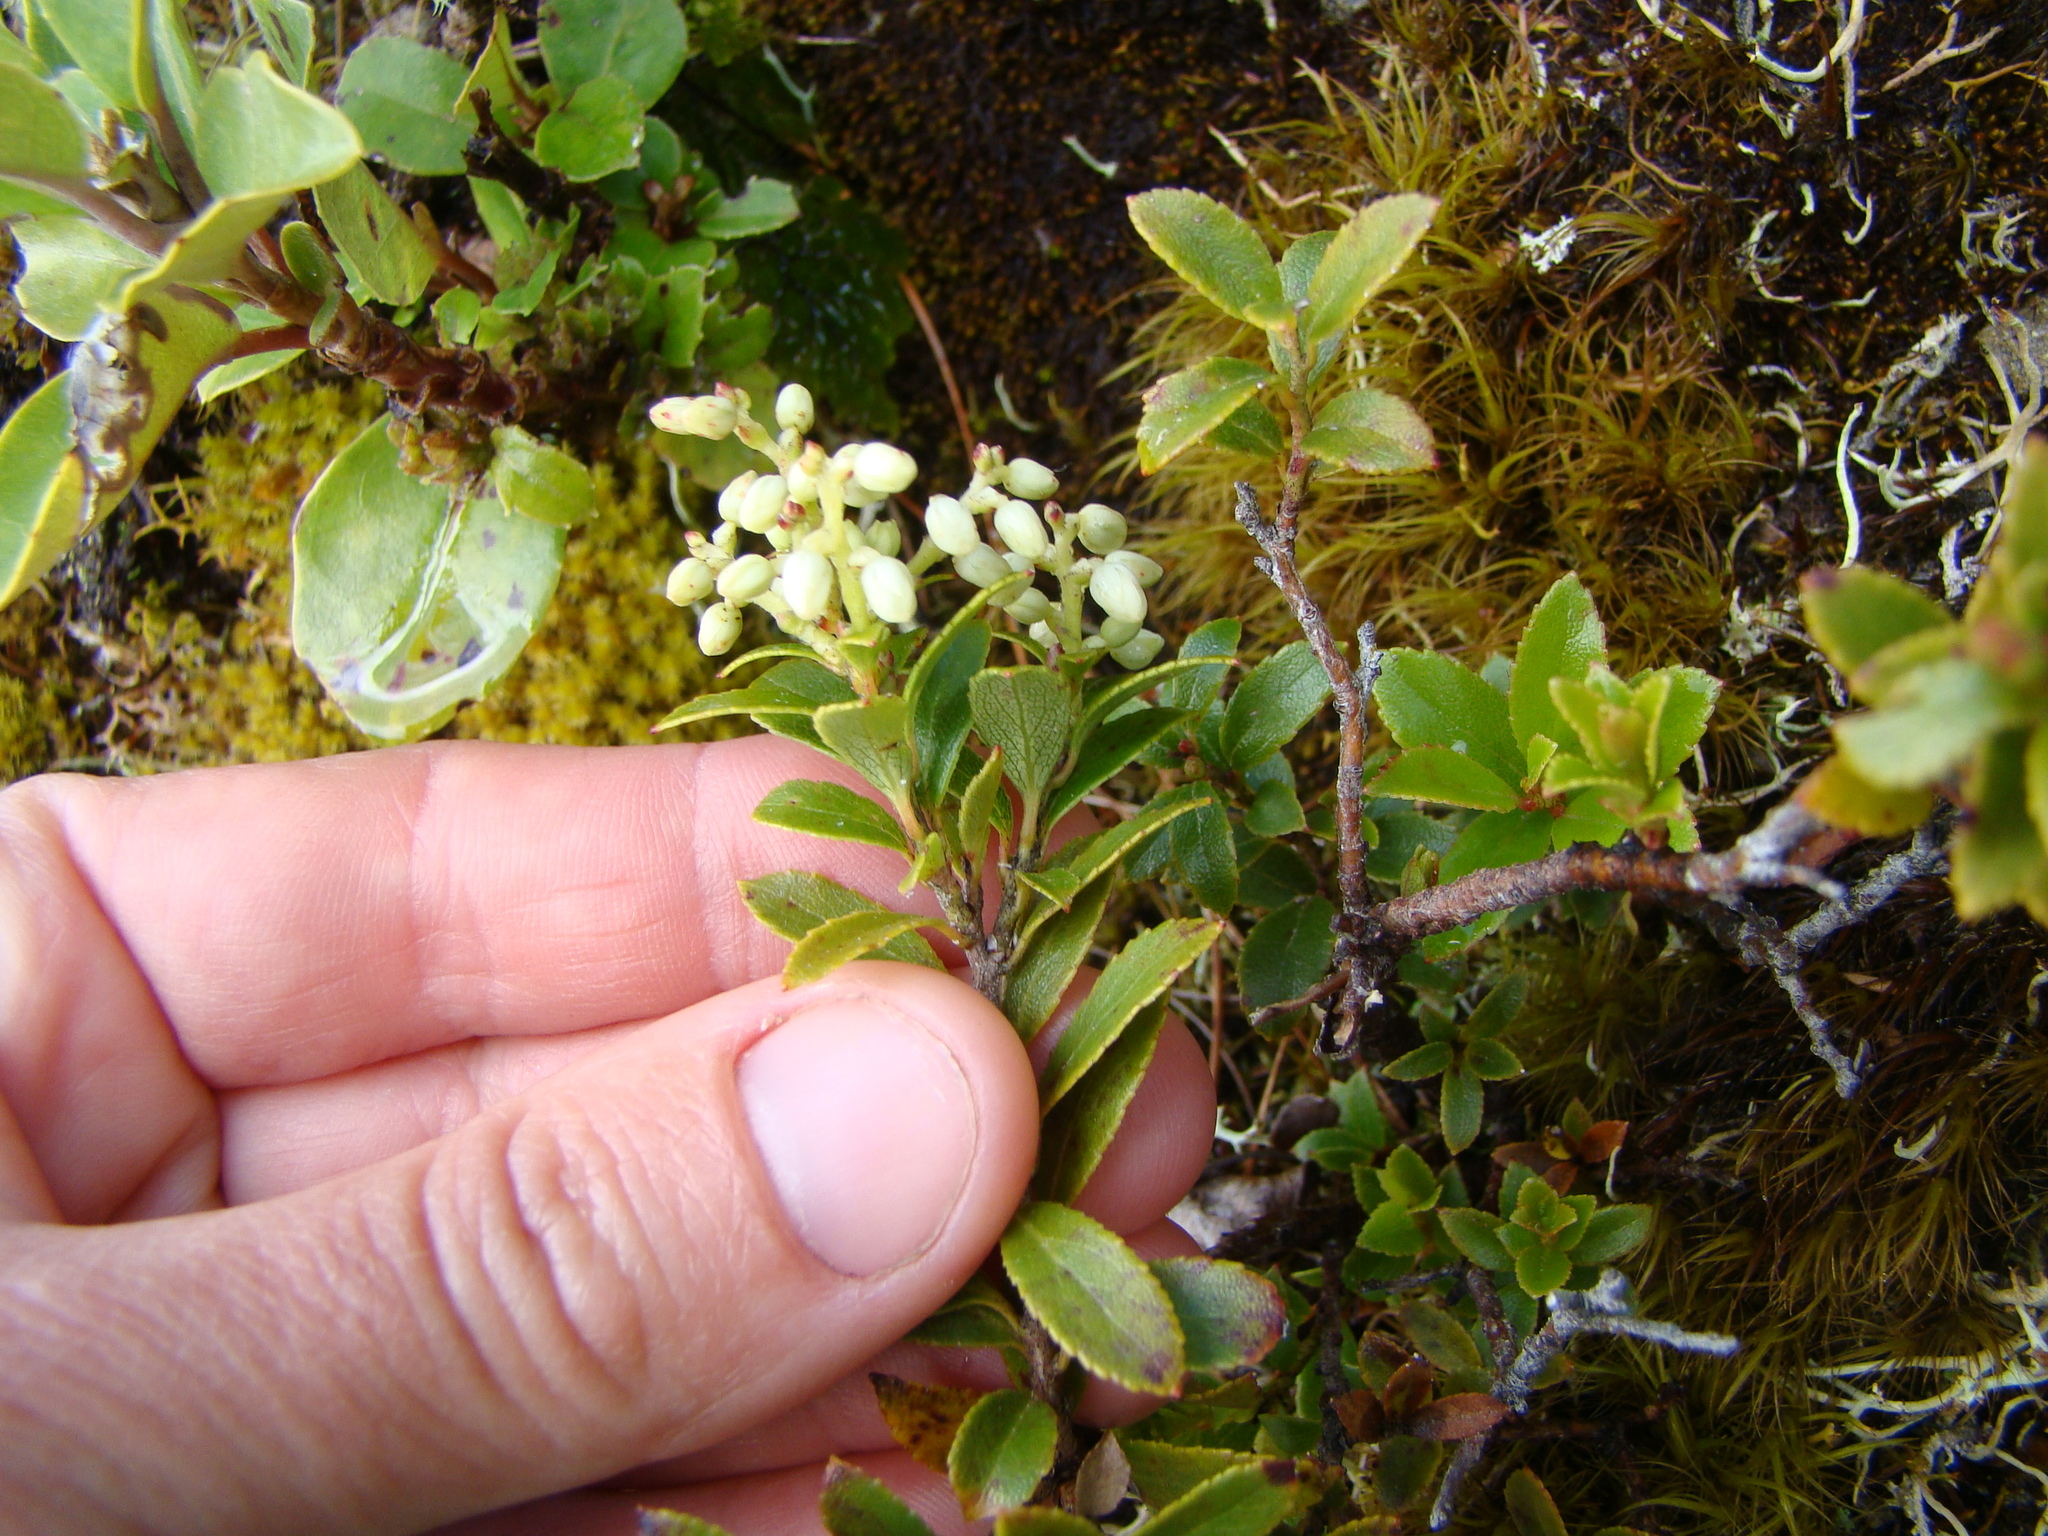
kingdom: Plantae
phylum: Tracheophyta
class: Magnoliopsida
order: Ericales
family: Ericaceae
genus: Gaultheria
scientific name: Gaultheria crassa
